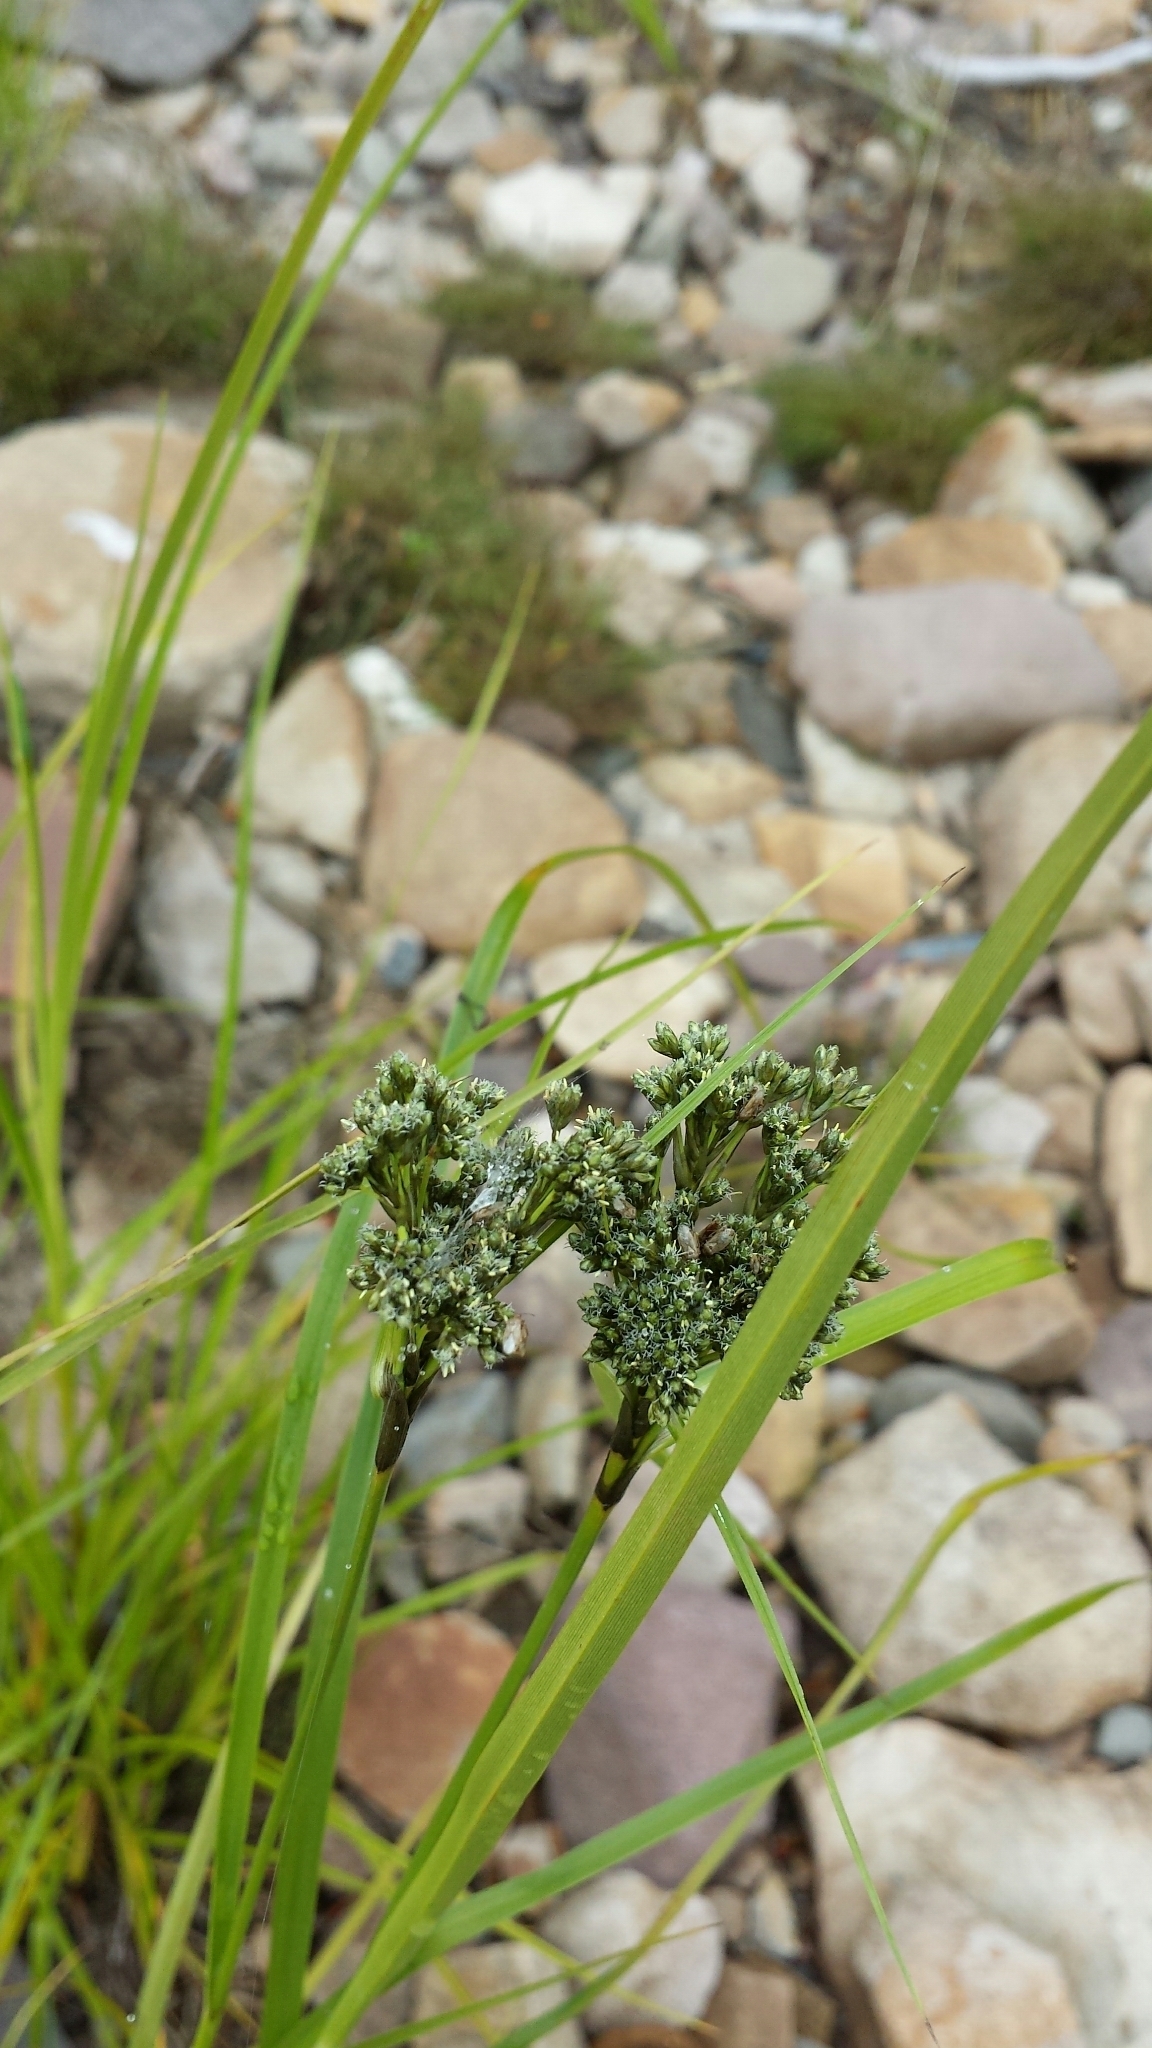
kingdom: Plantae
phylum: Tracheophyta
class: Liliopsida
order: Poales
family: Cyperaceae
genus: Scirpus
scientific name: Scirpus atrocinctus
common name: Black-girdled bulrush
